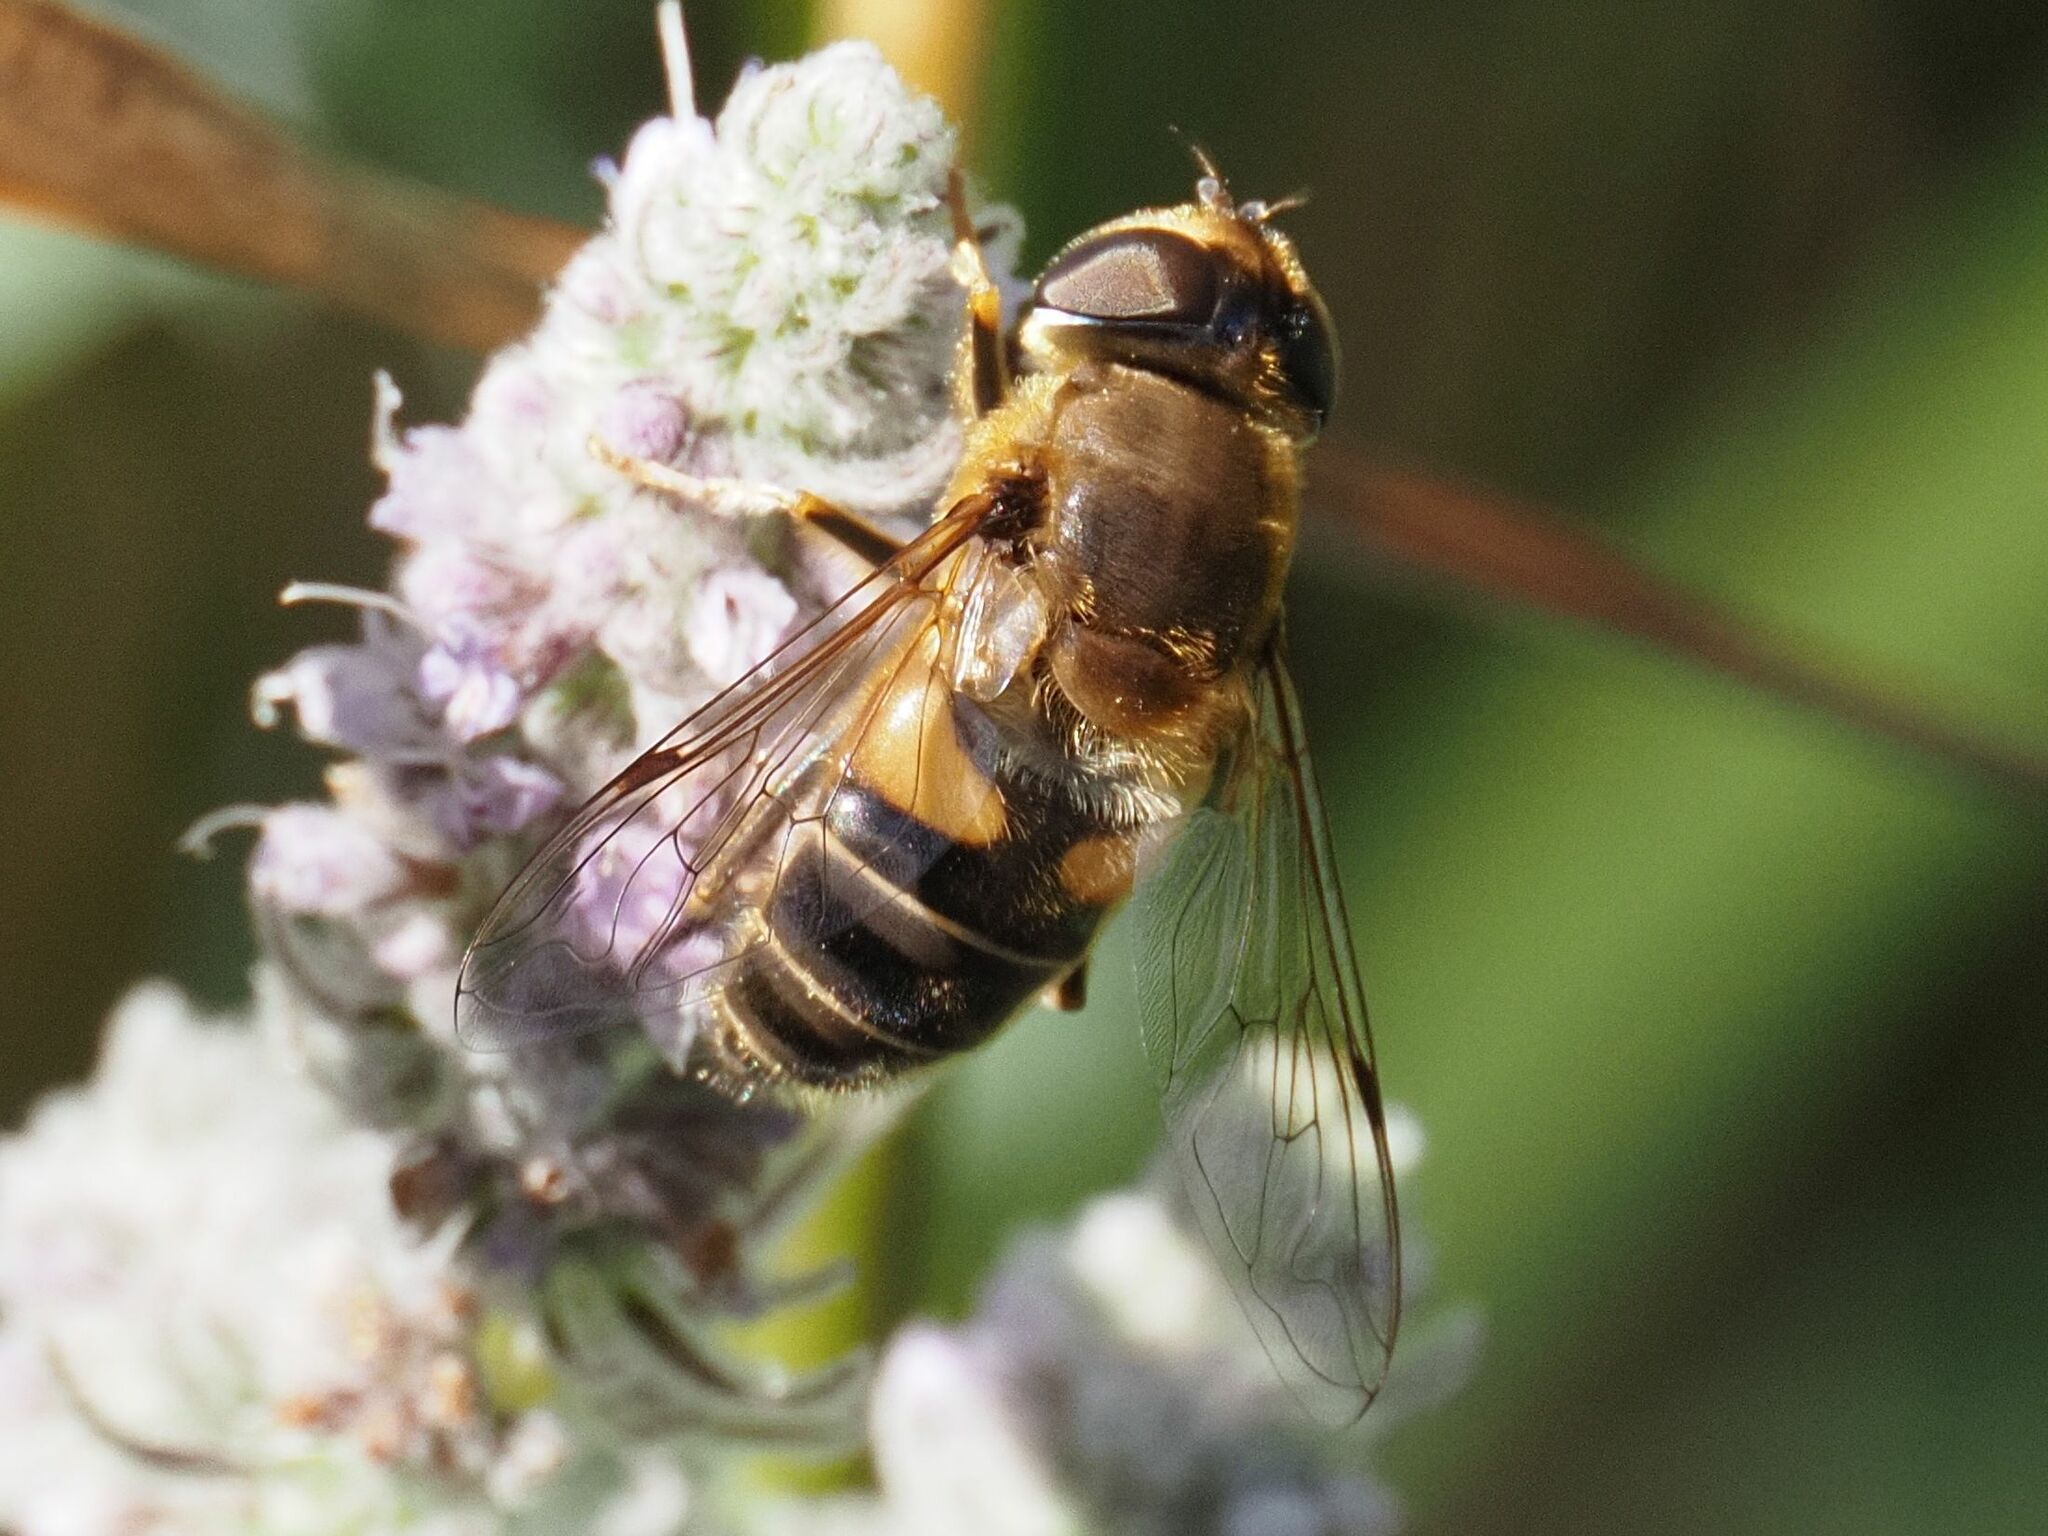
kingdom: Animalia
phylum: Arthropoda
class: Insecta
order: Diptera
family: Syrphidae
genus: Eristalis
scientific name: Eristalis pertinax
